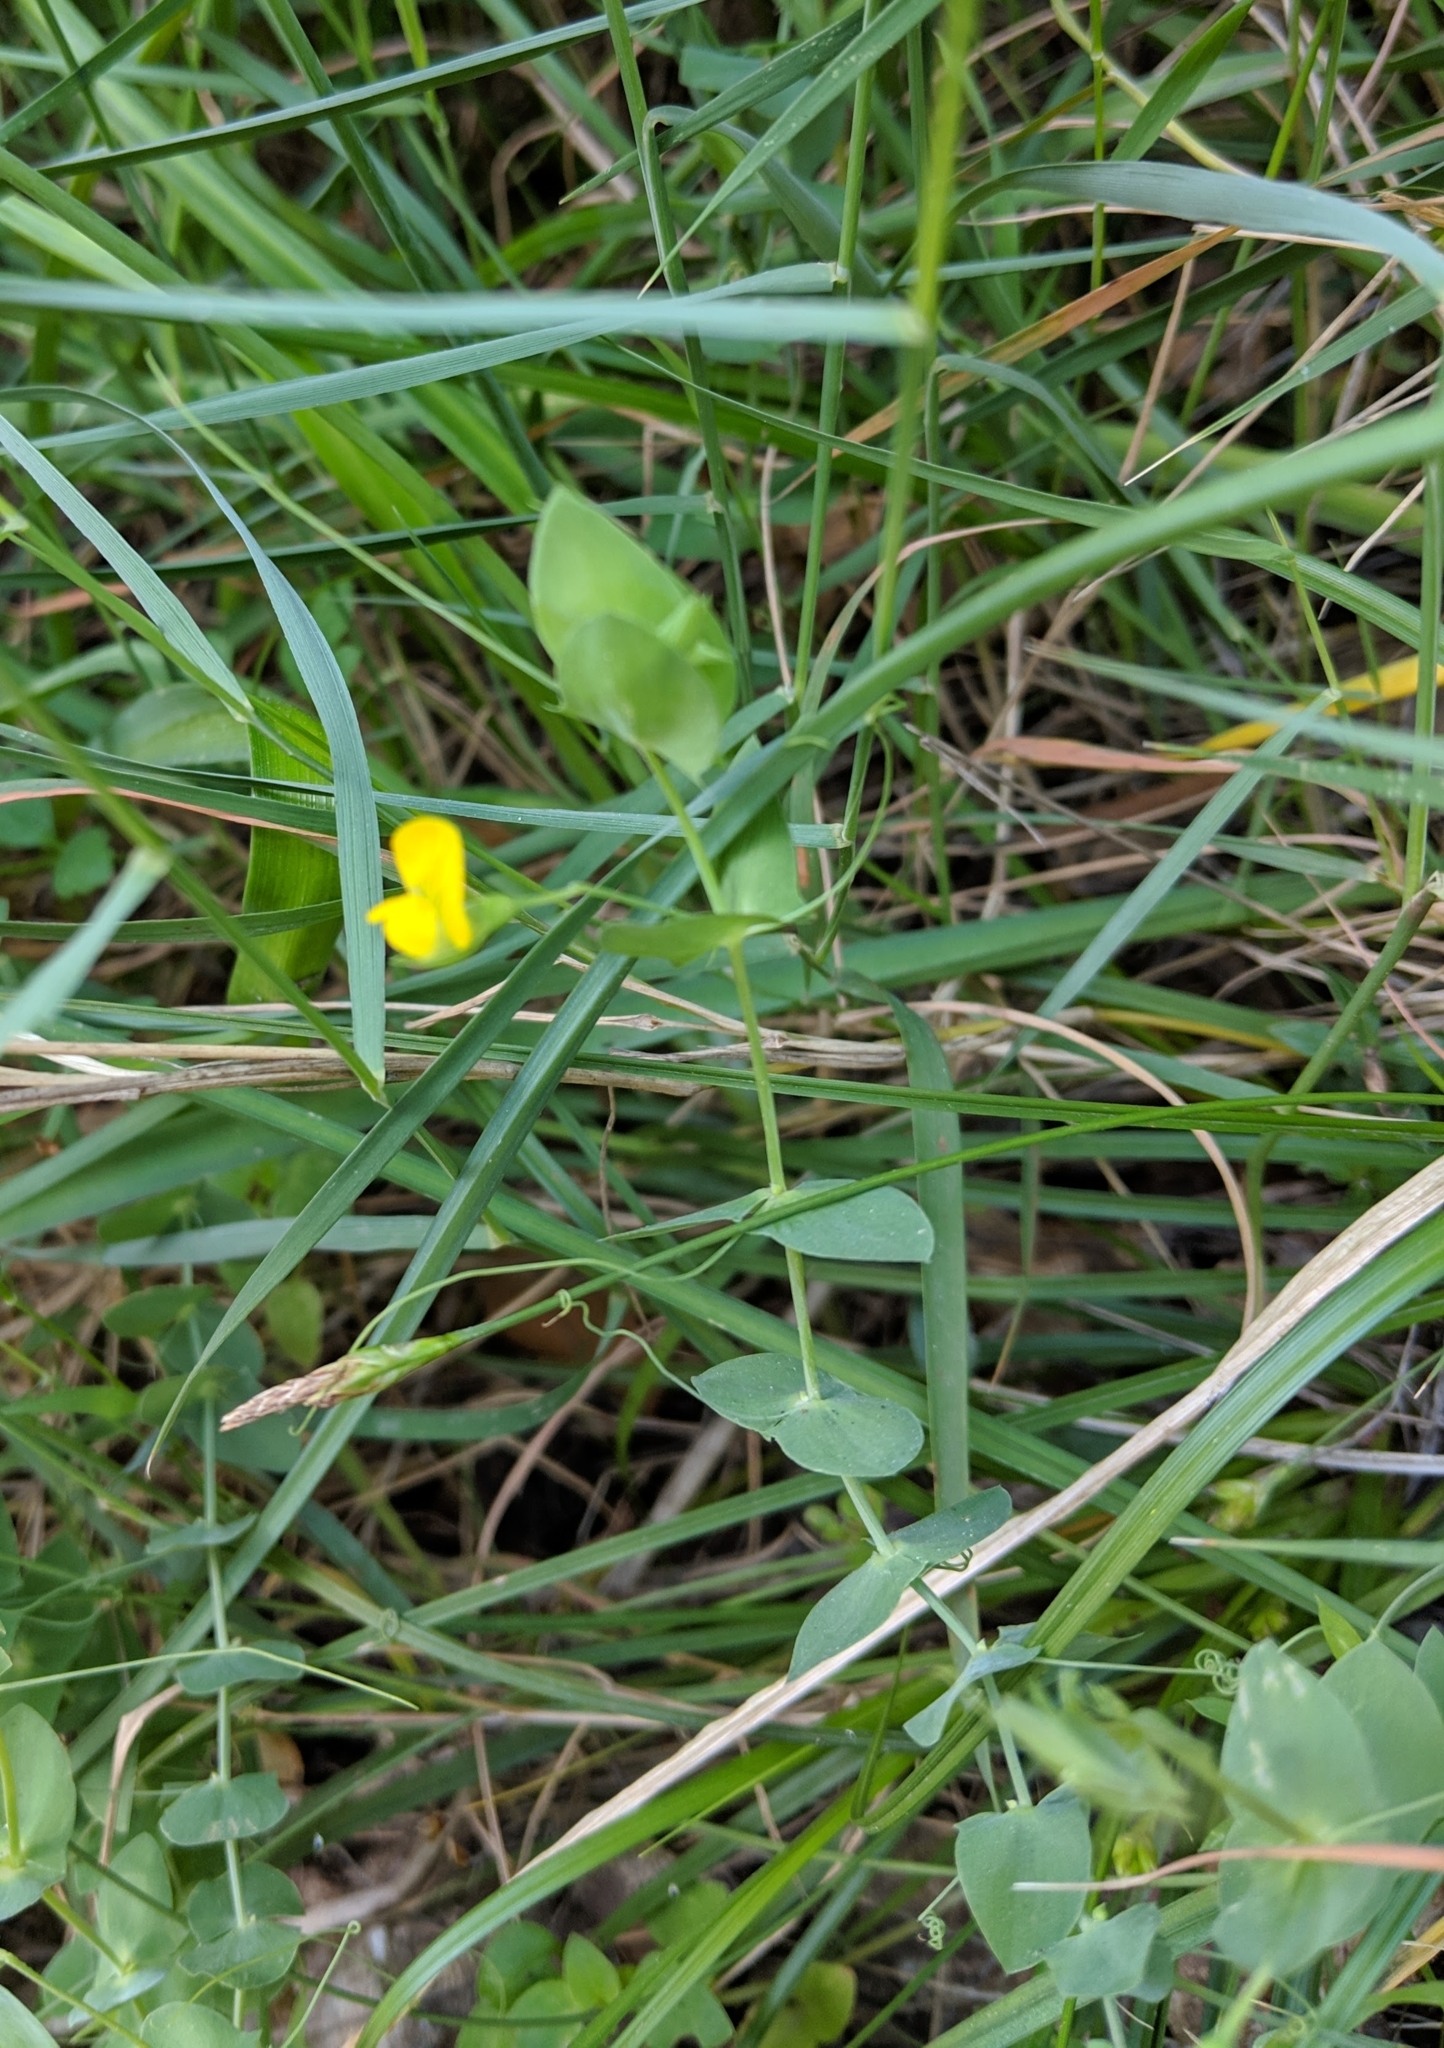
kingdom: Plantae
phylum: Tracheophyta
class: Magnoliopsida
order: Fabales
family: Fabaceae
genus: Lathyrus
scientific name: Lathyrus aphaca
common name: Yellow vetchling
